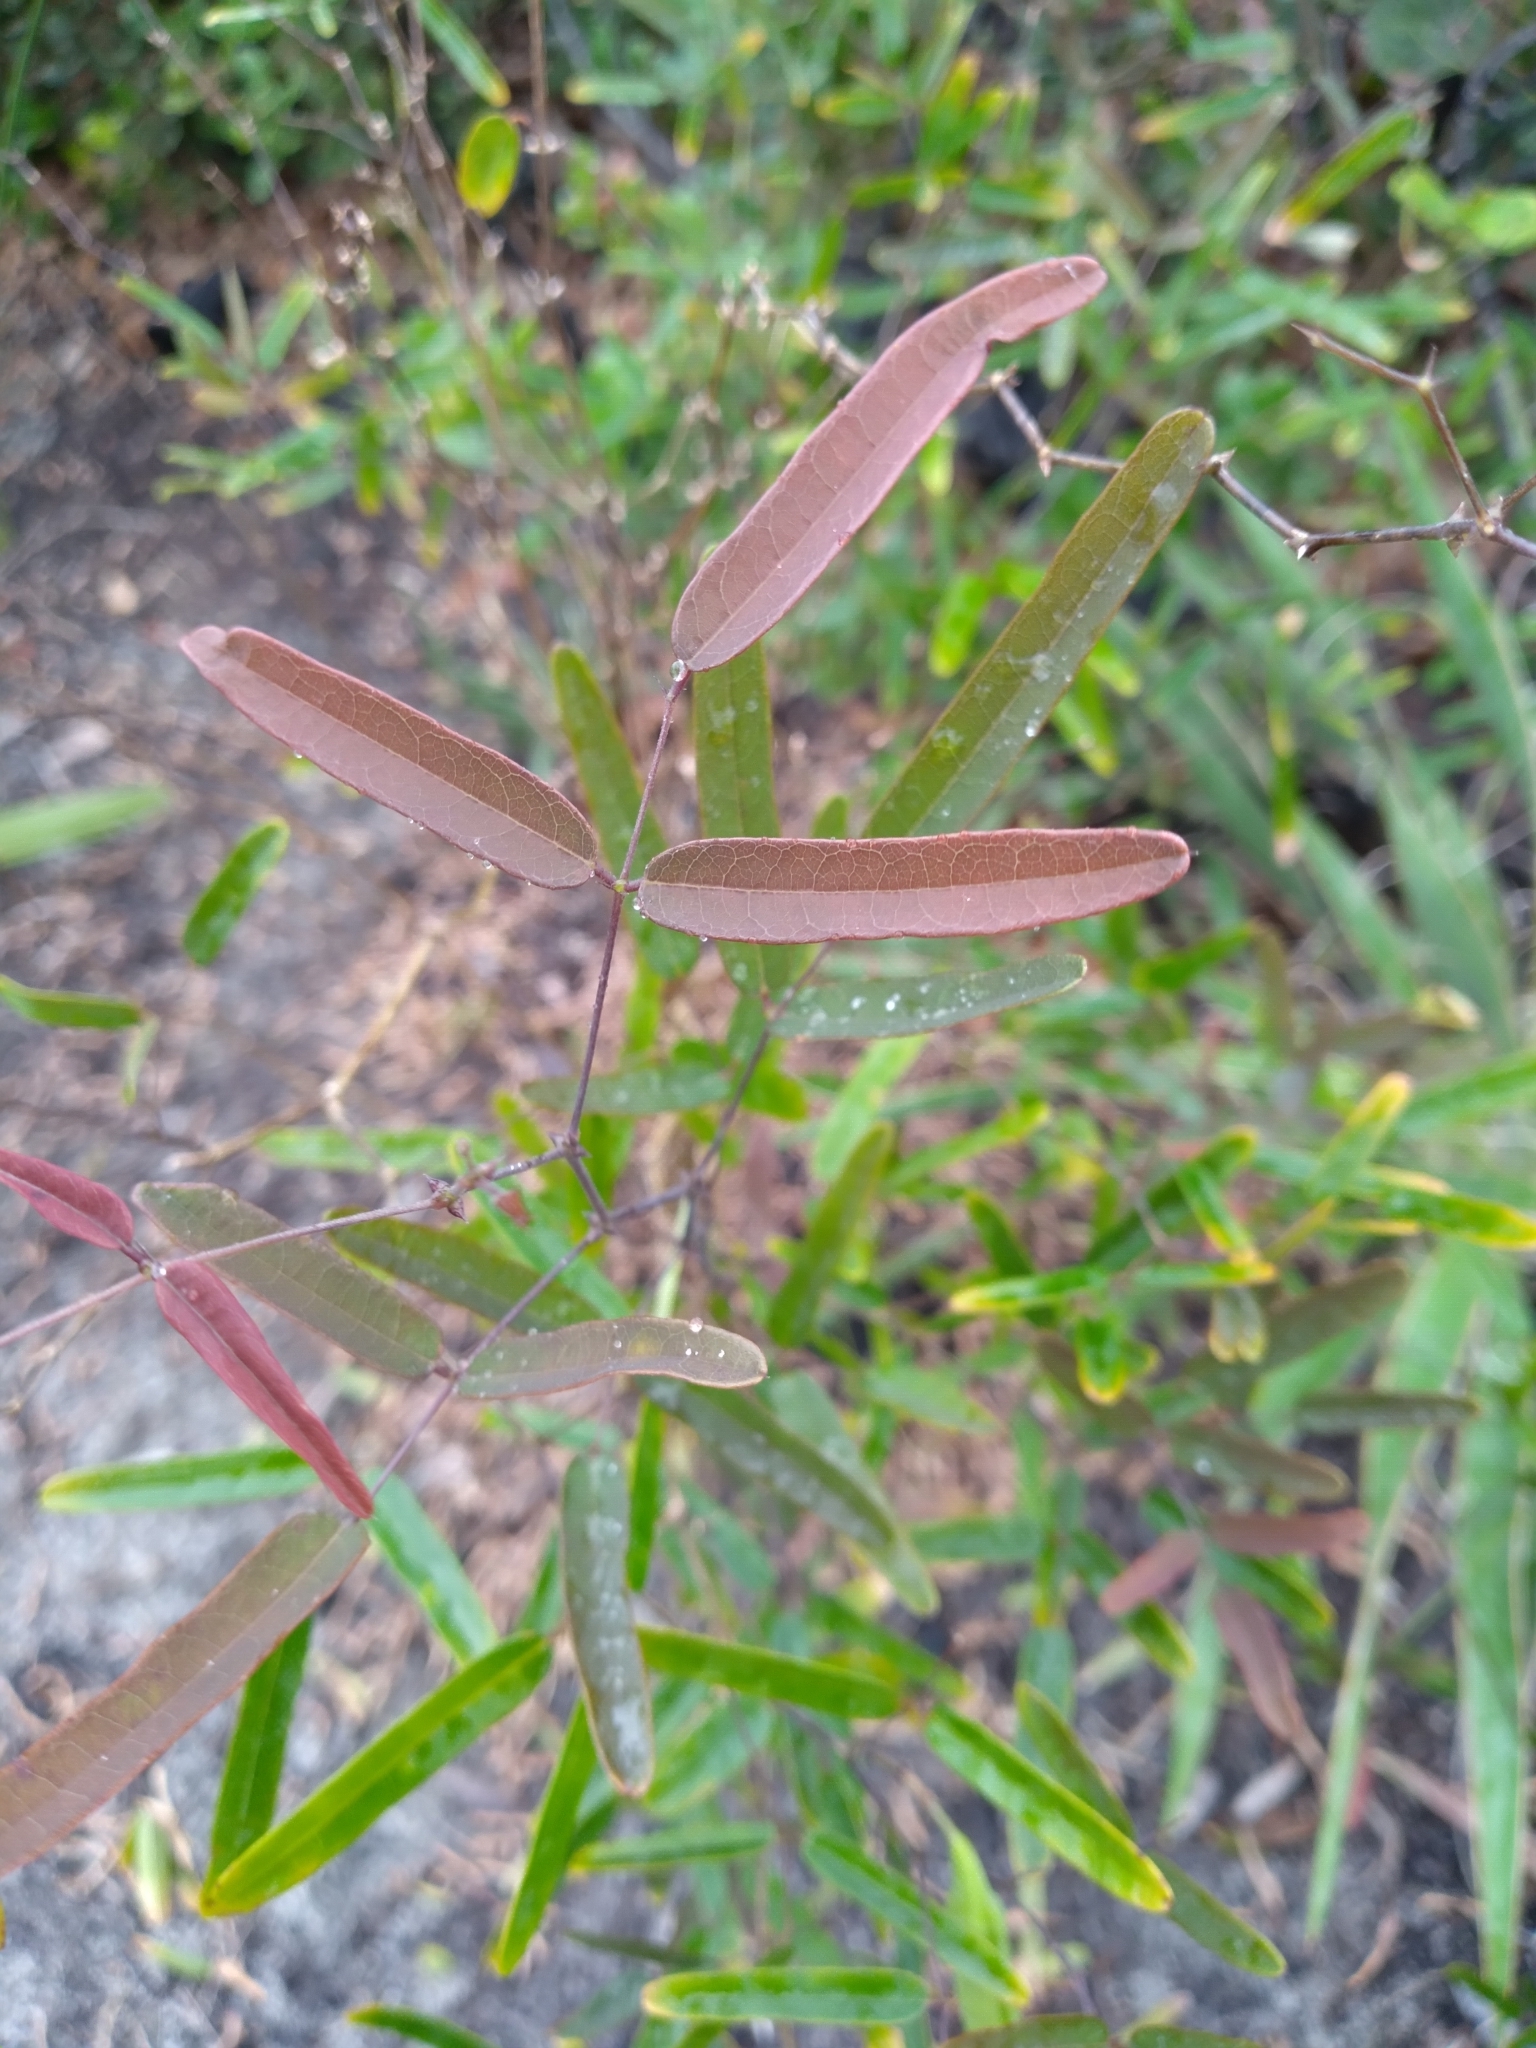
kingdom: Plantae
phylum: Tracheophyta
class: Magnoliopsida
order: Fabales
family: Fabaceae
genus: Clitoria
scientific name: Clitoria fragrans
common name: Pigeon-wings
